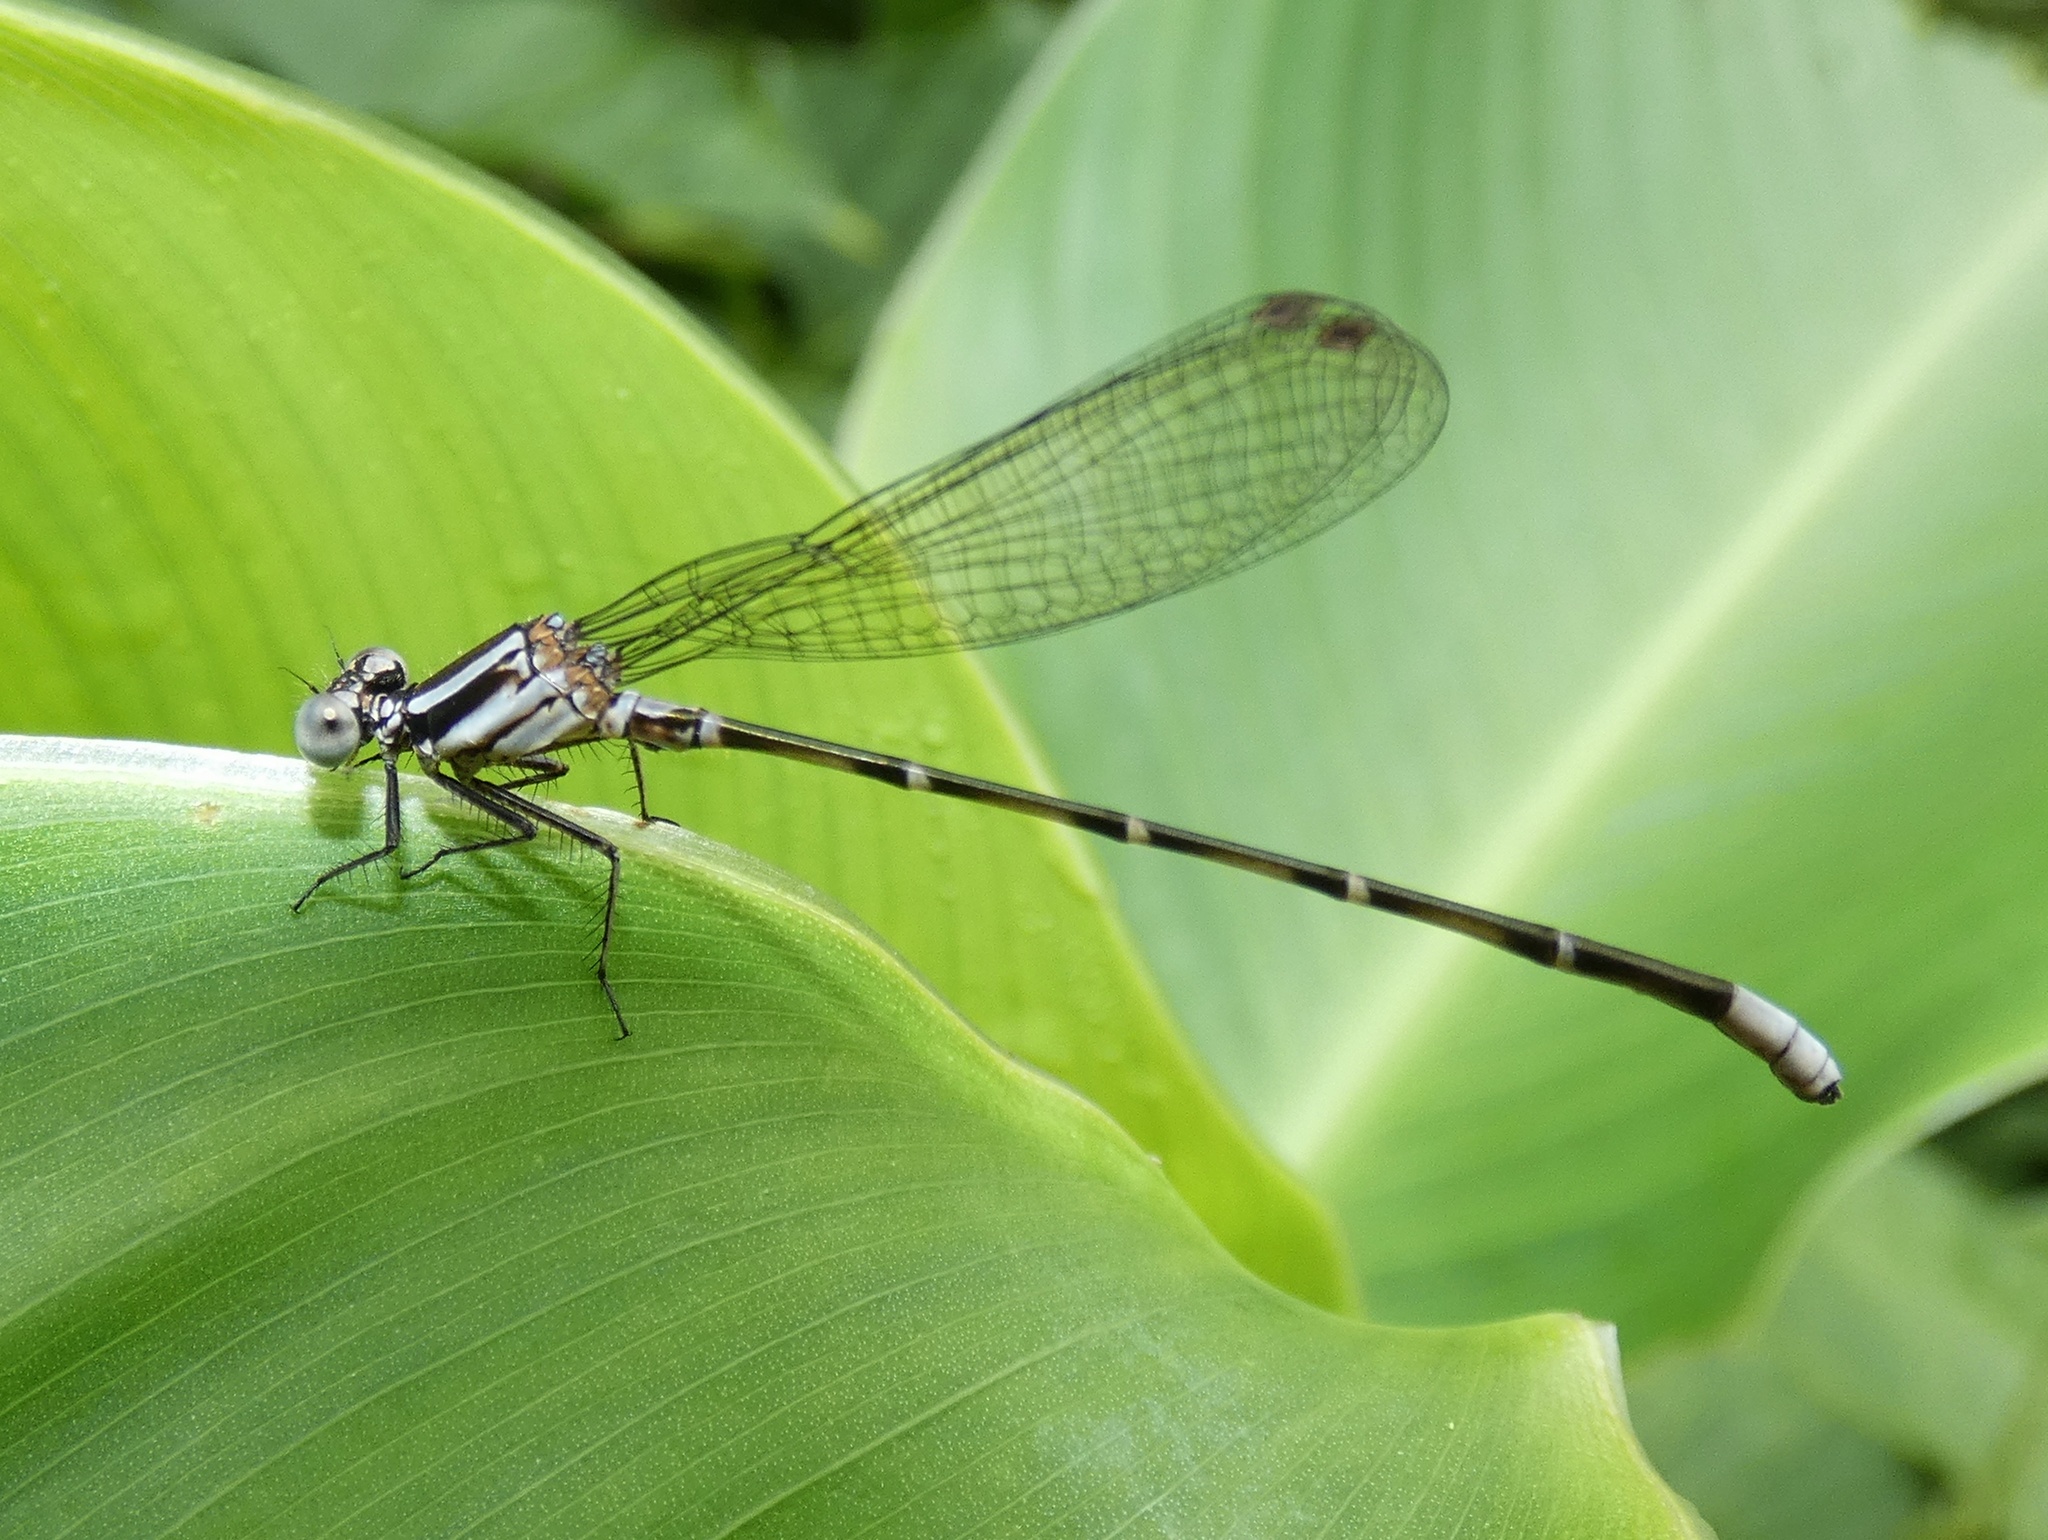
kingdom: Animalia
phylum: Arthropoda
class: Insecta
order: Odonata
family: Coenagrionidae
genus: Argia
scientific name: Argia pulla
